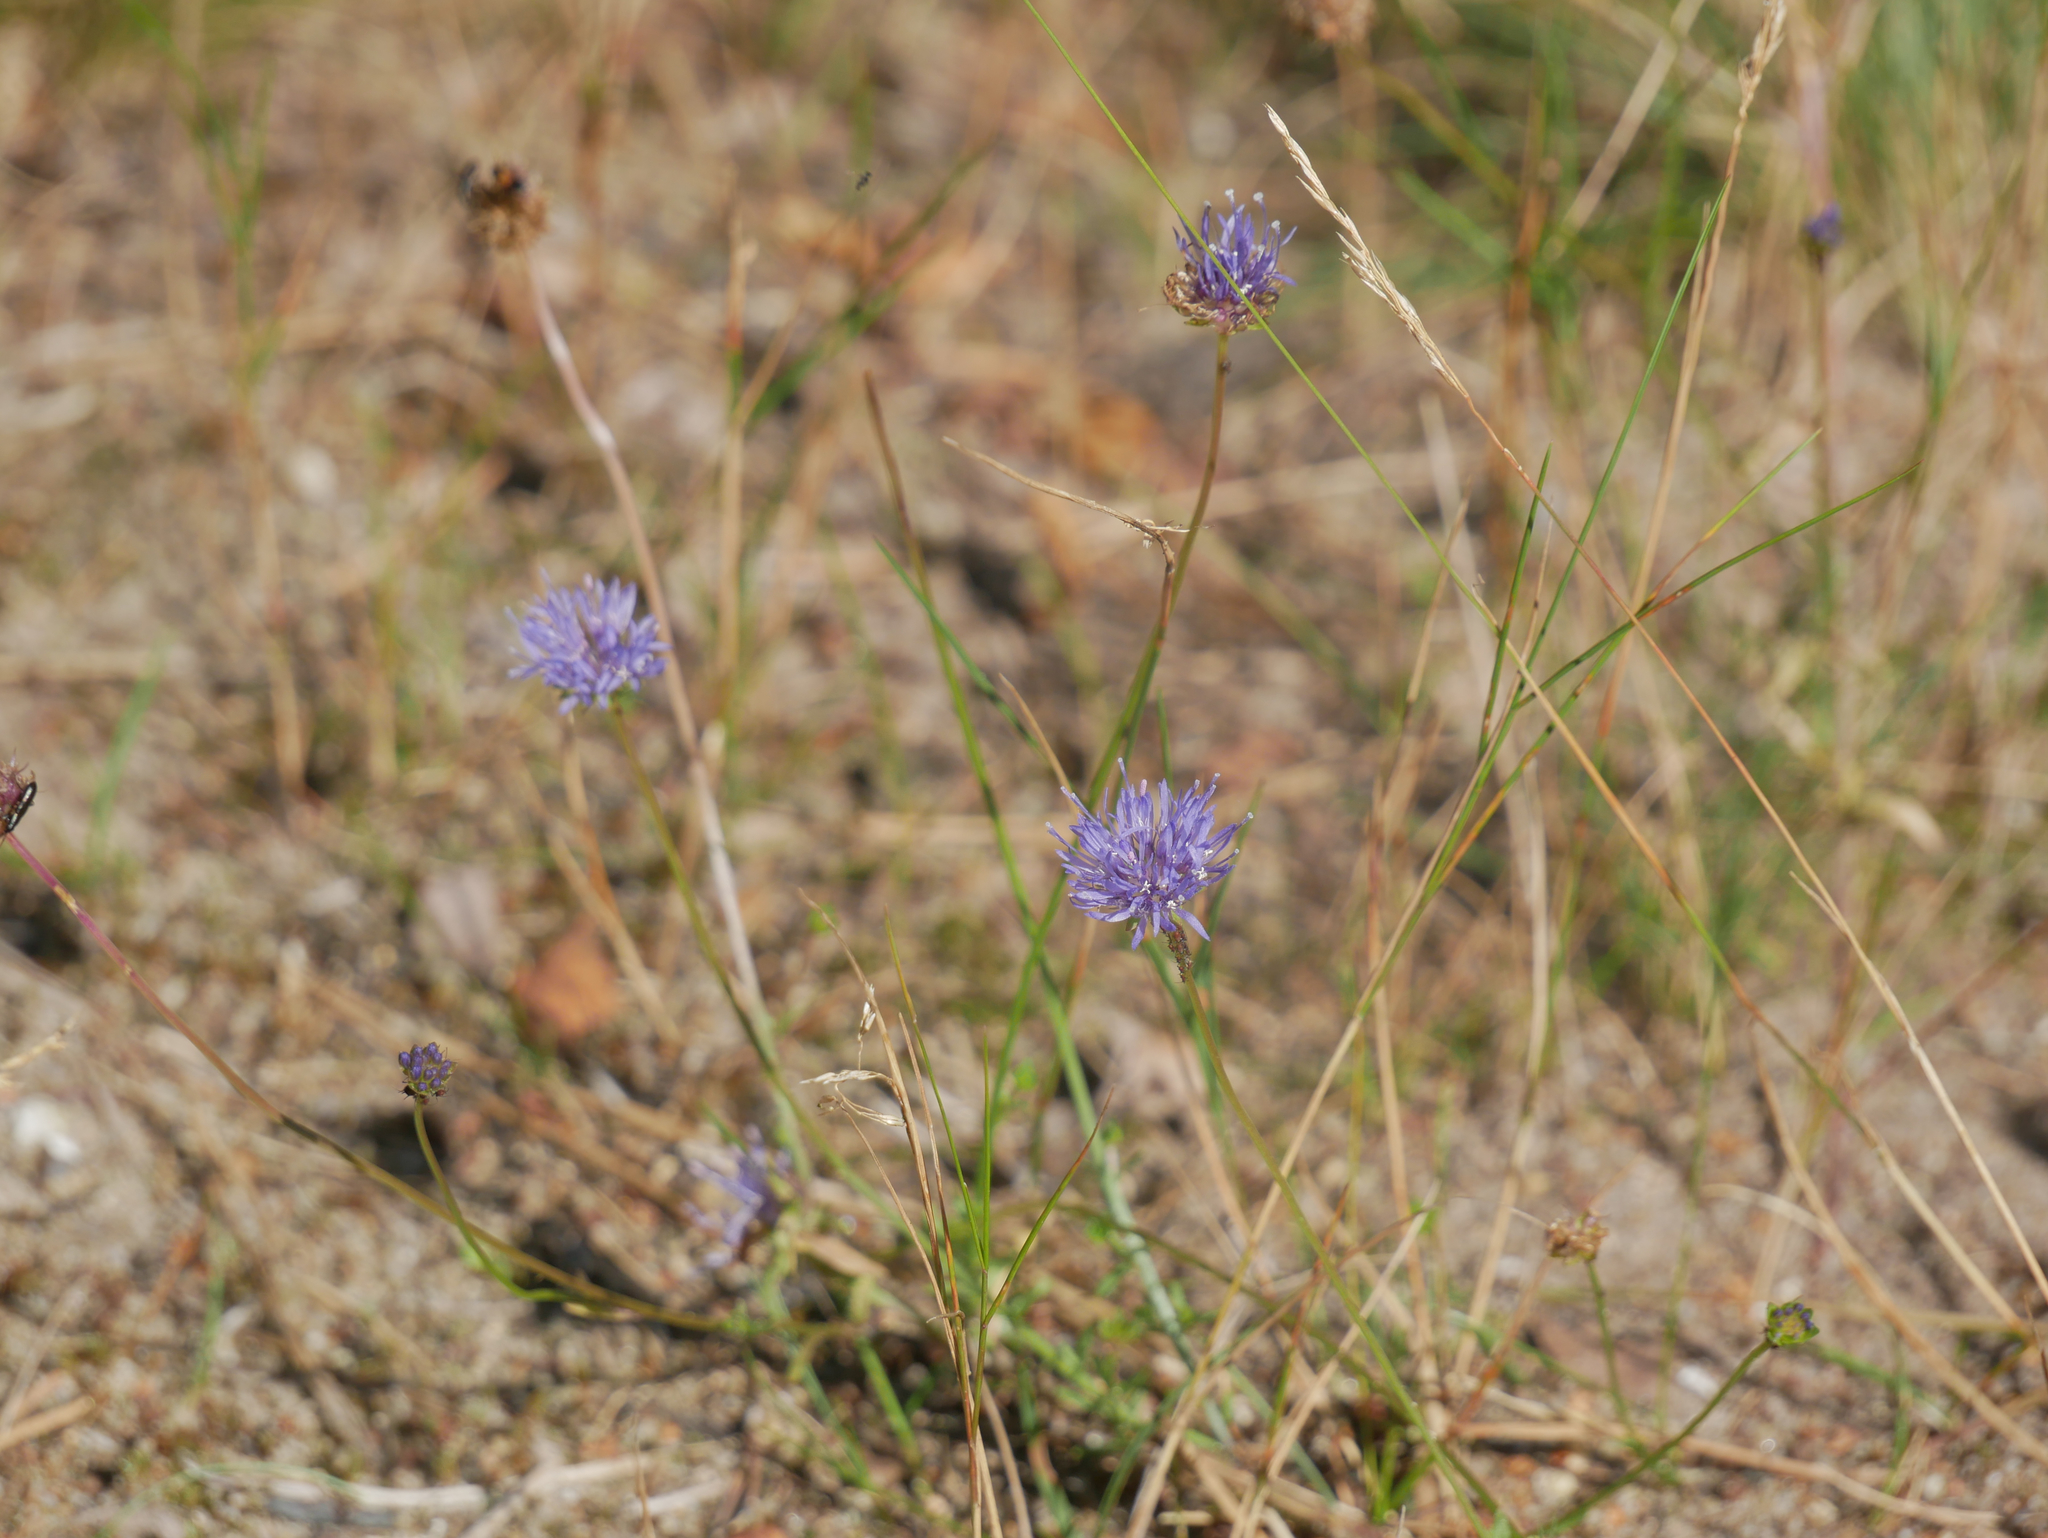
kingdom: Plantae
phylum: Tracheophyta
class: Magnoliopsida
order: Asterales
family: Campanulaceae
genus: Jasione
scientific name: Jasione montana
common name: Sheep's-bit
